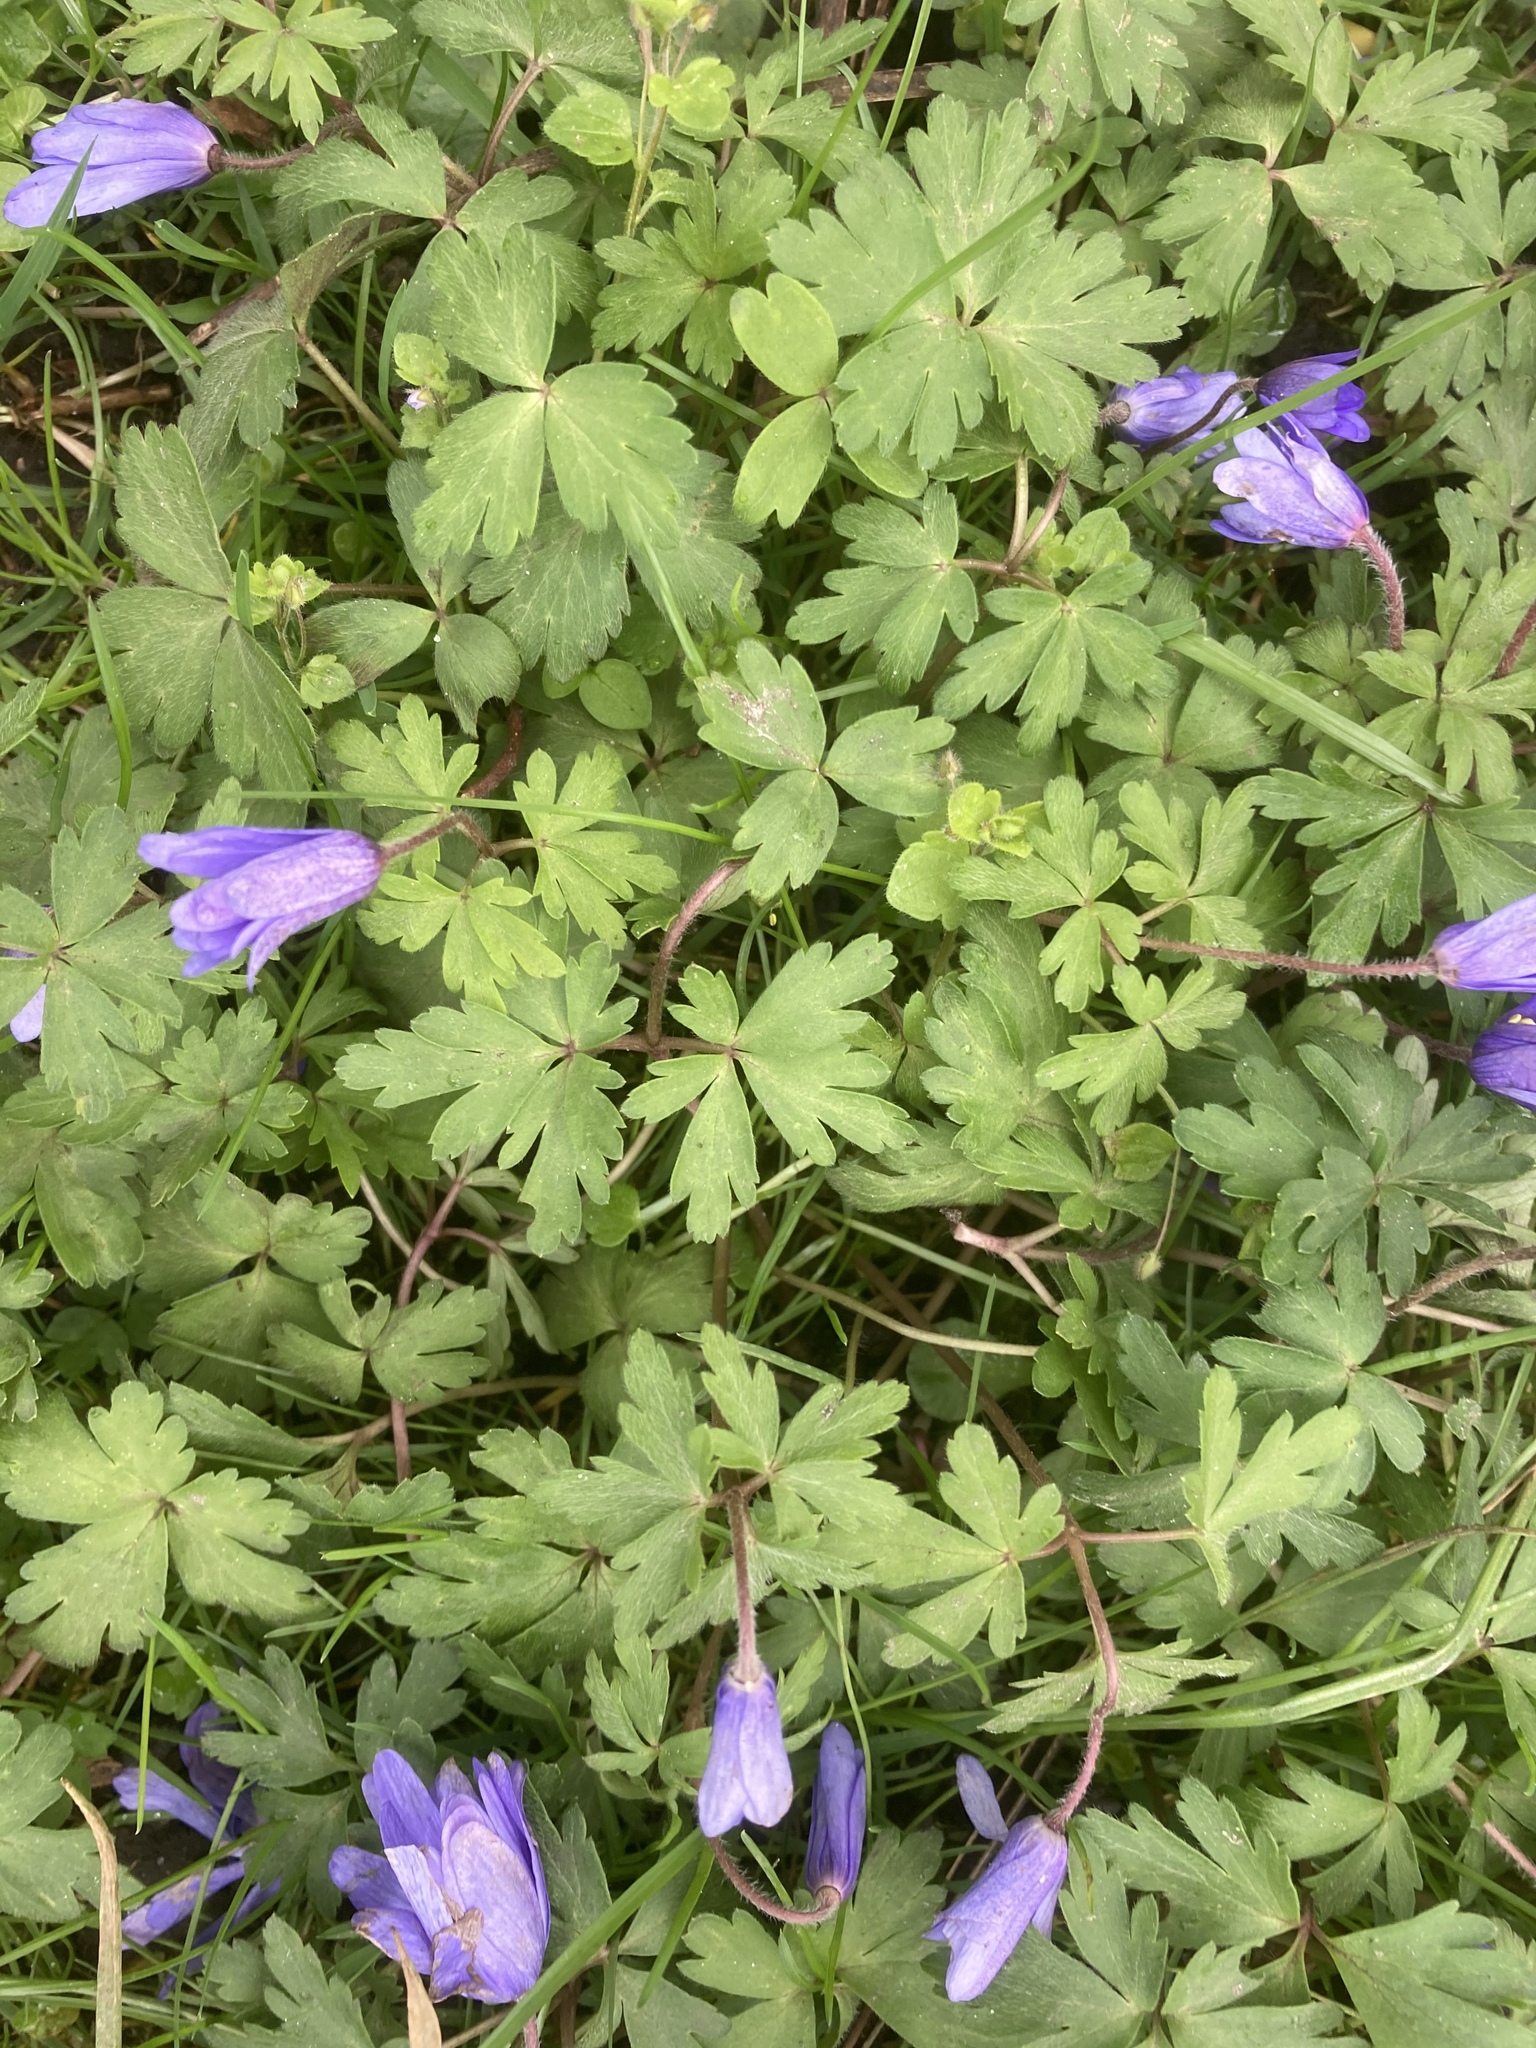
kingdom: Plantae
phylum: Tracheophyta
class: Magnoliopsida
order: Ranunculales
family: Ranunculaceae
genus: Anemone
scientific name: Anemone blanda
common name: Balkan anemone
